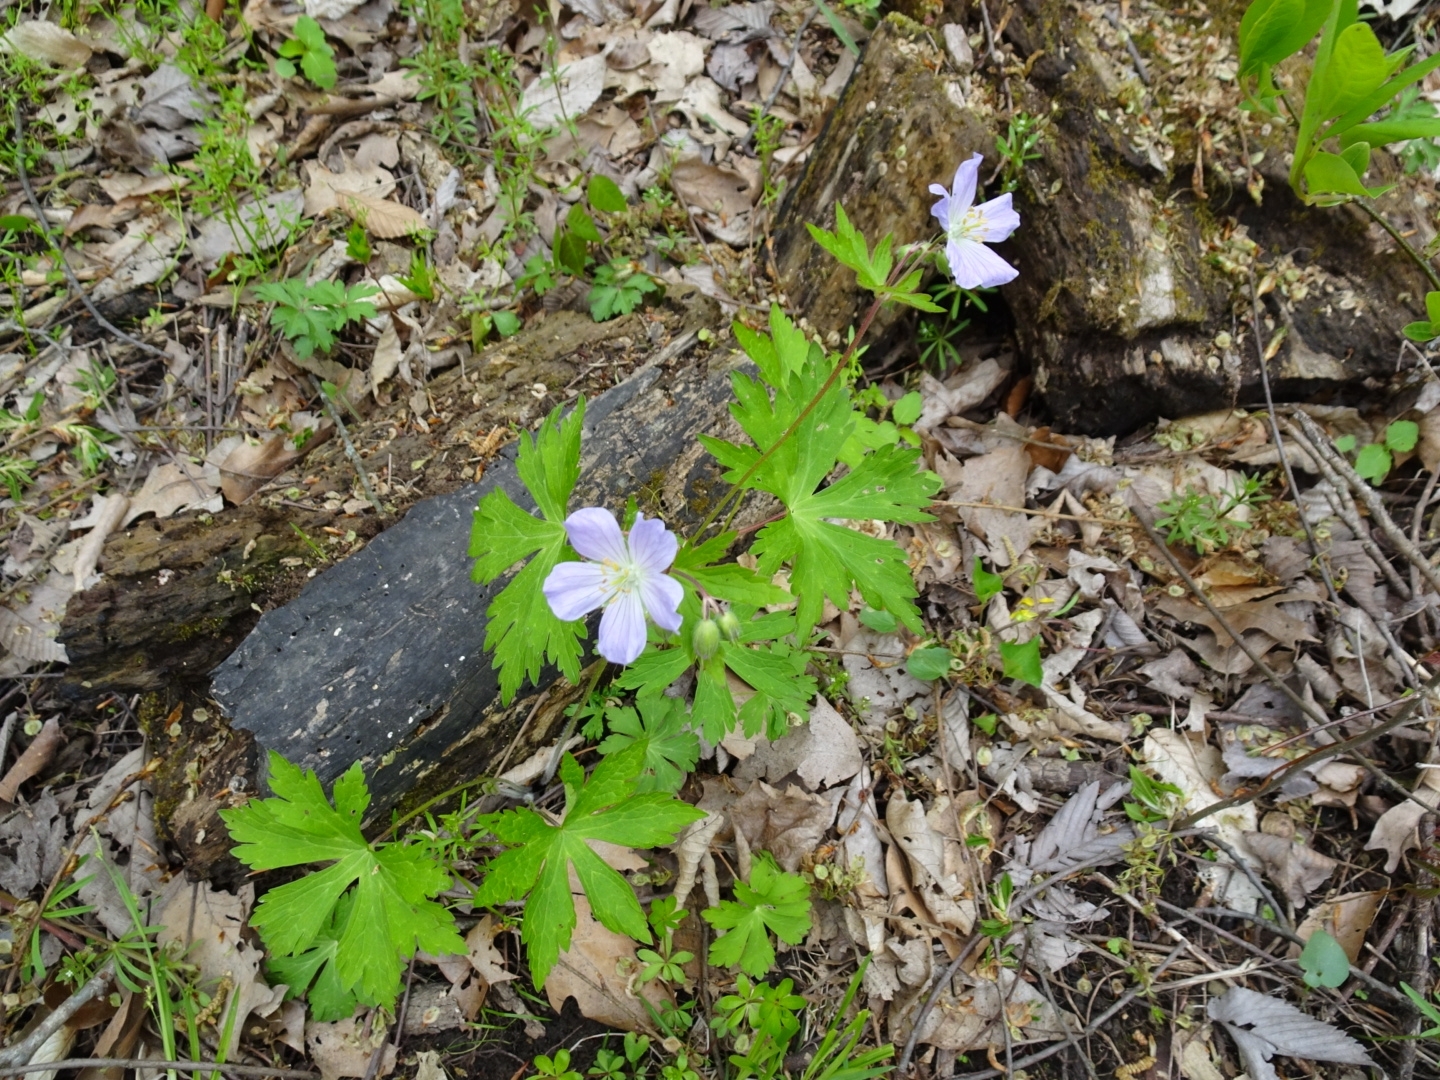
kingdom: Plantae
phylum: Tracheophyta
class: Magnoliopsida
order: Geraniales
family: Geraniaceae
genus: Geranium
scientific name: Geranium maculatum
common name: Spotted geranium
